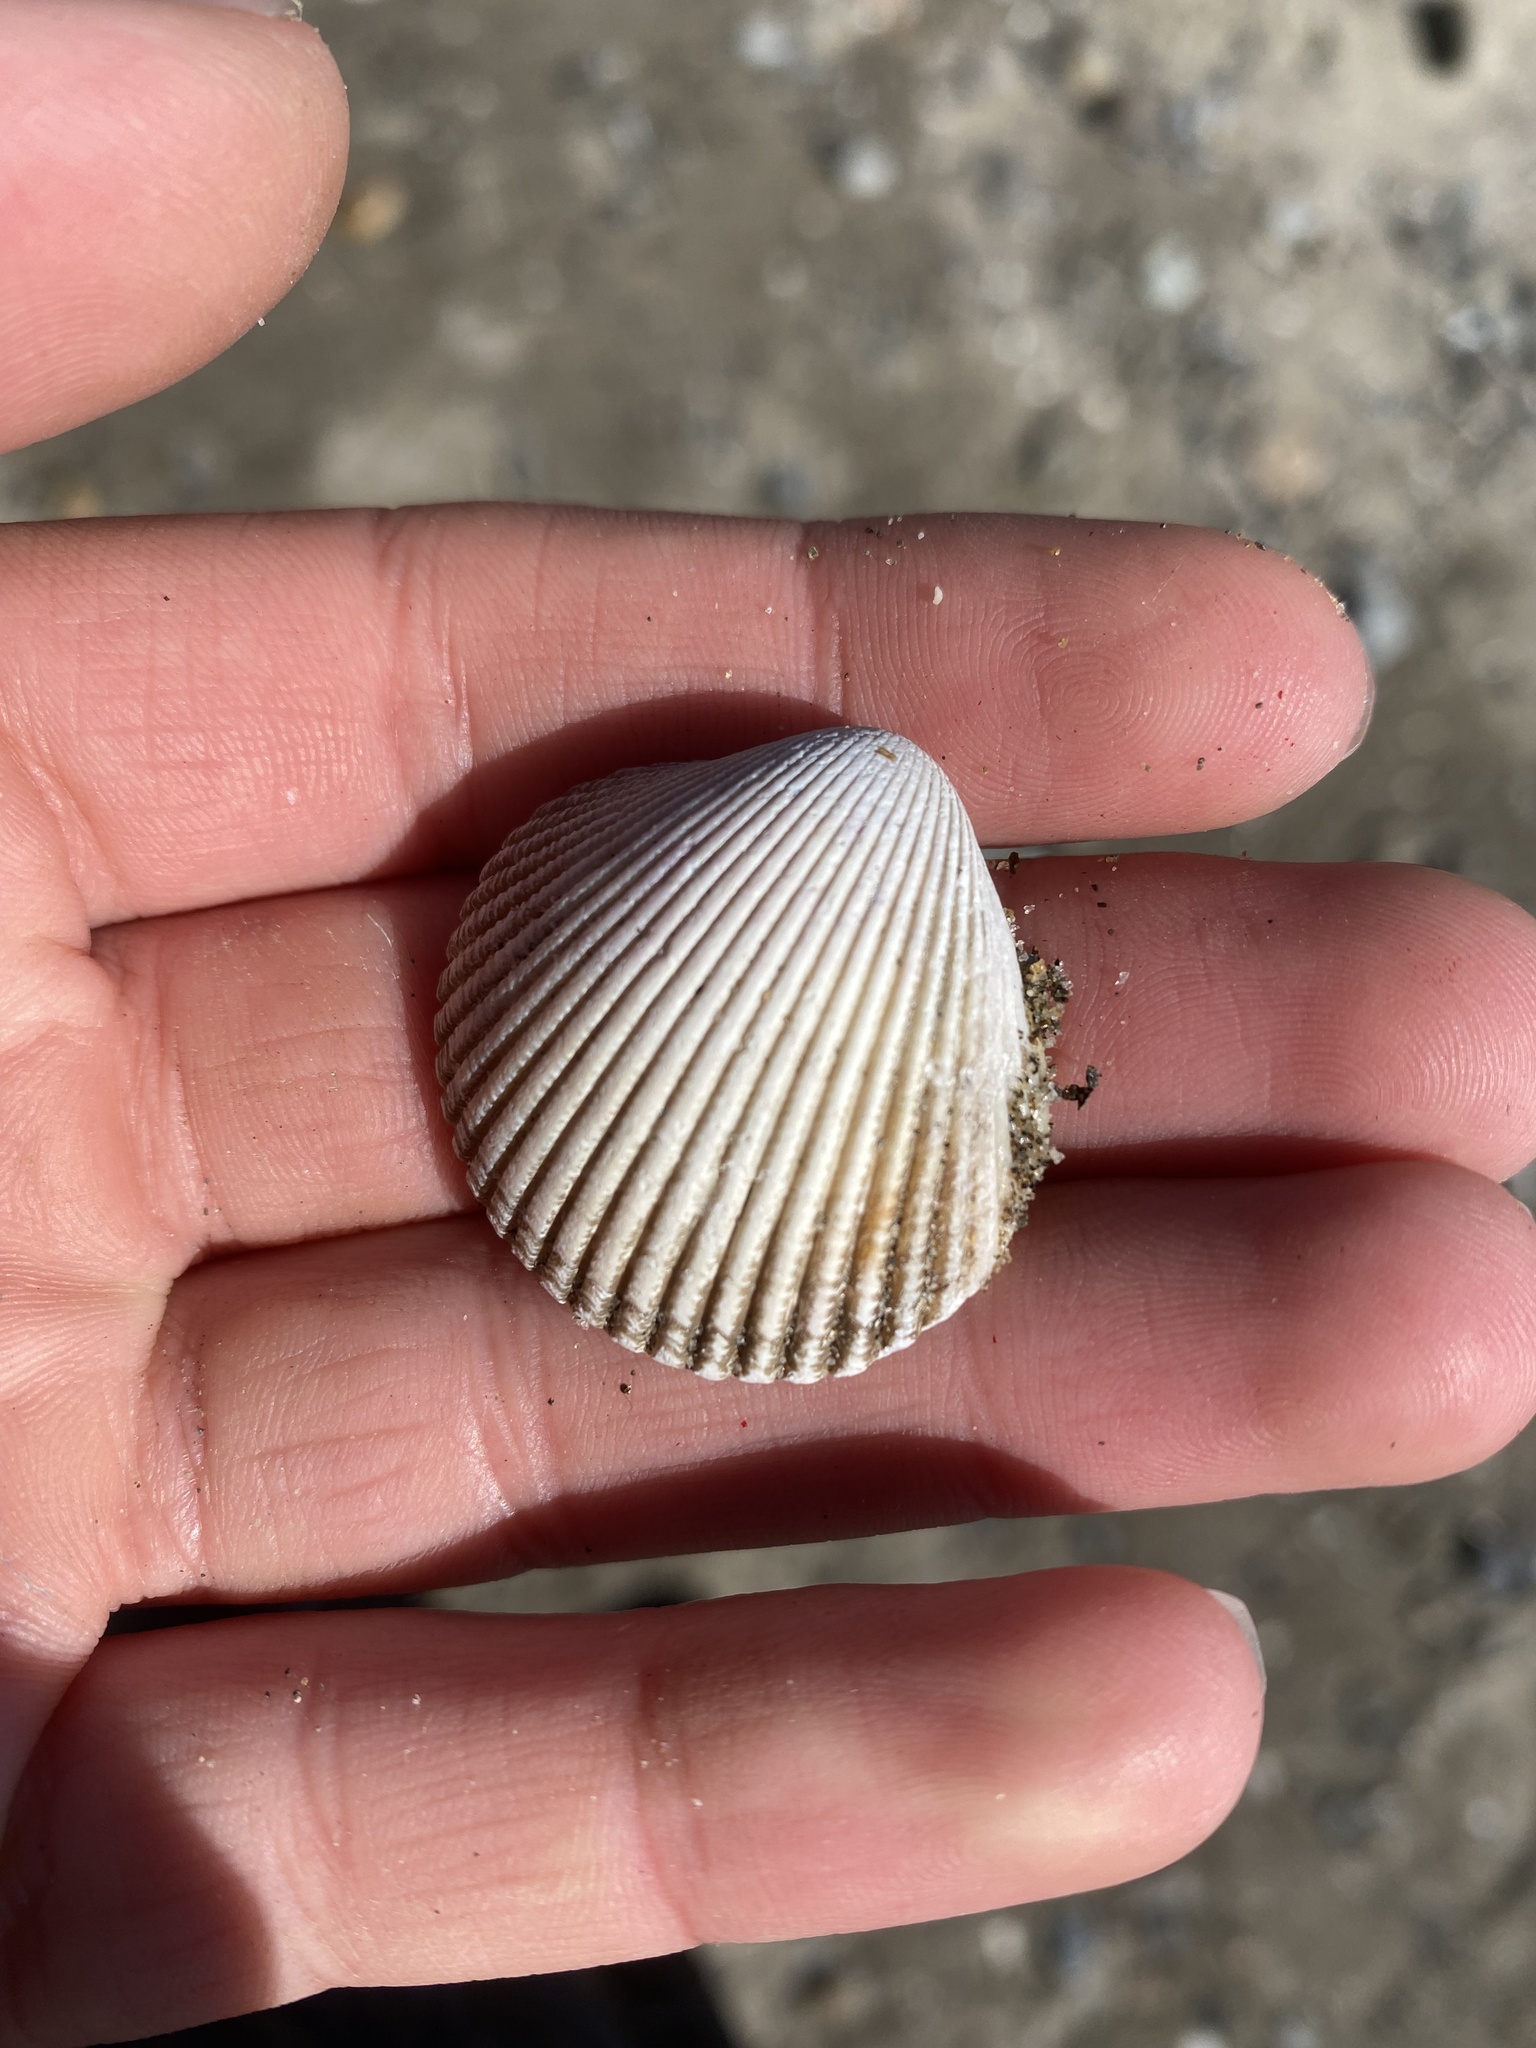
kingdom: Animalia
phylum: Mollusca
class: Bivalvia
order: Cardiida
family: Cardiidae
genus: Clinocardium
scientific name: Clinocardium nuttallii
